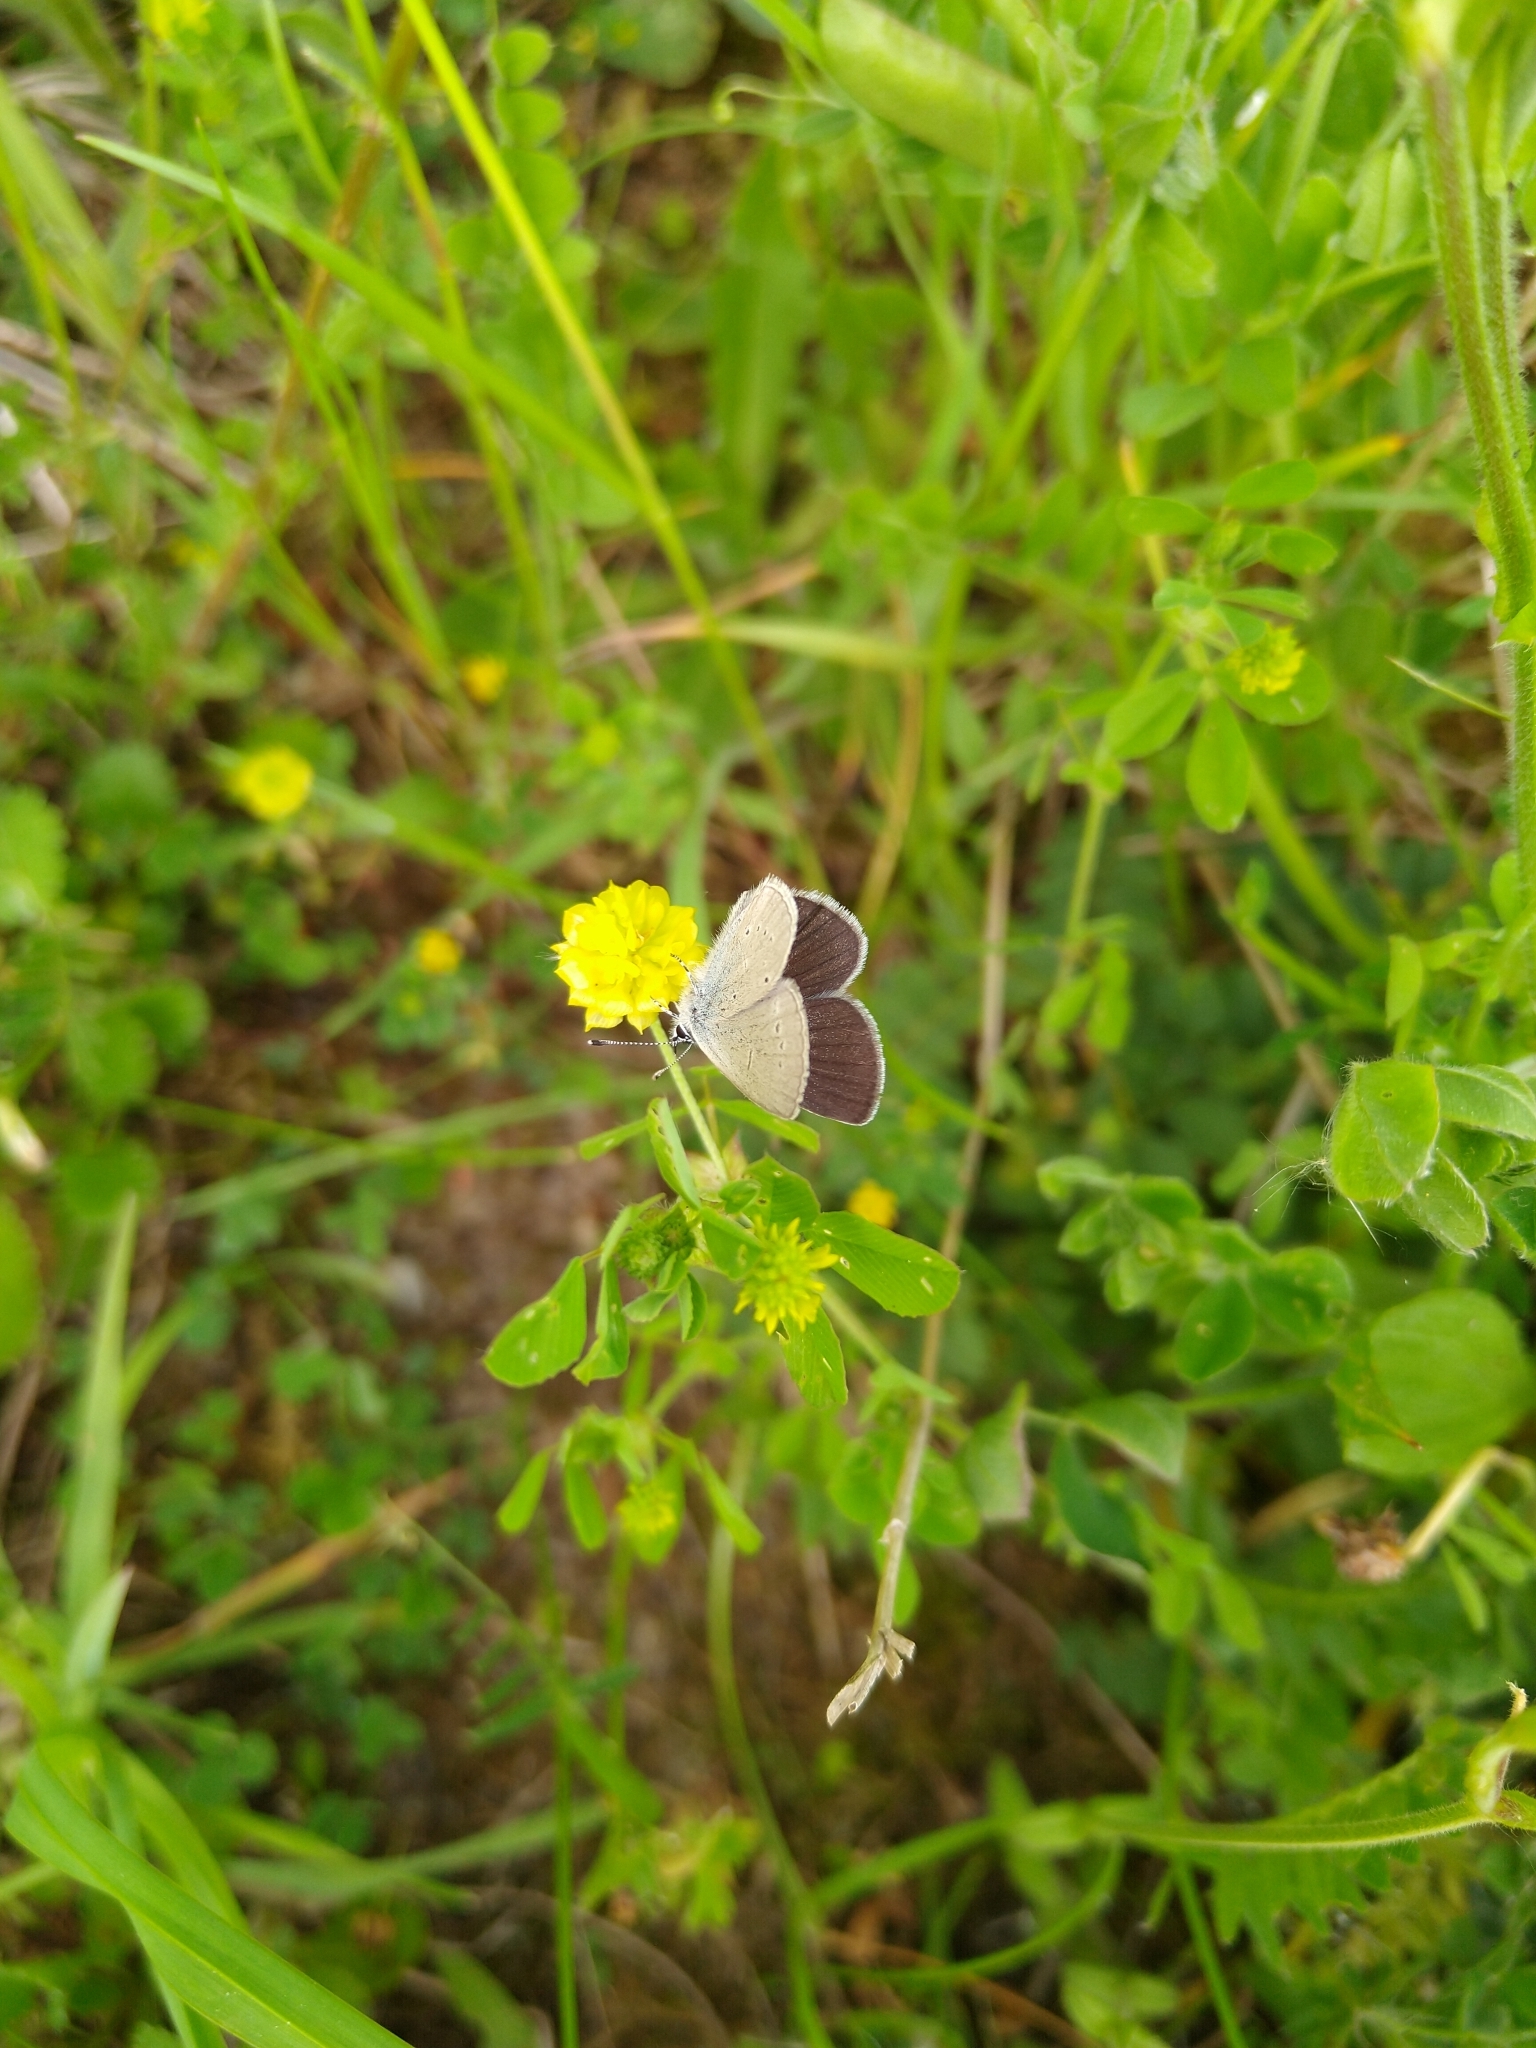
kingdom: Animalia
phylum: Arthropoda
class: Insecta
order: Lepidoptera
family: Lycaenidae
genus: Cupido
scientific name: Cupido minimus
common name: Small blue
